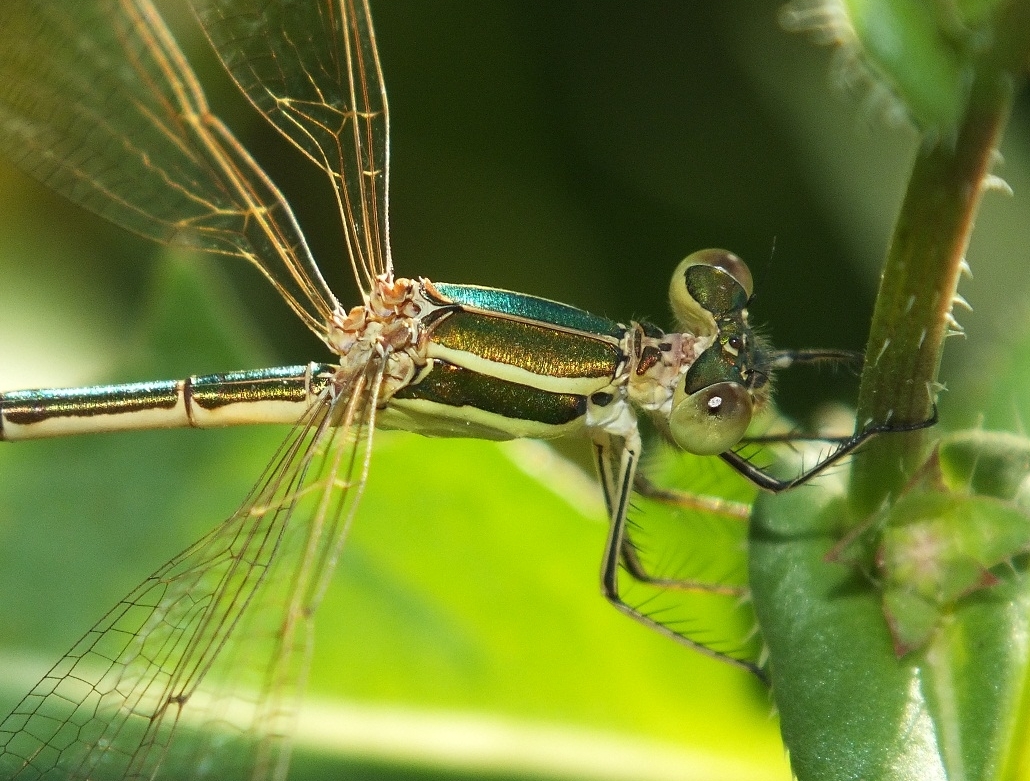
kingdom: Animalia
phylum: Arthropoda
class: Insecta
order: Odonata
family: Lestidae
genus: Lestes
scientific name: Lestes barbarus
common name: Migrant spreadwing
